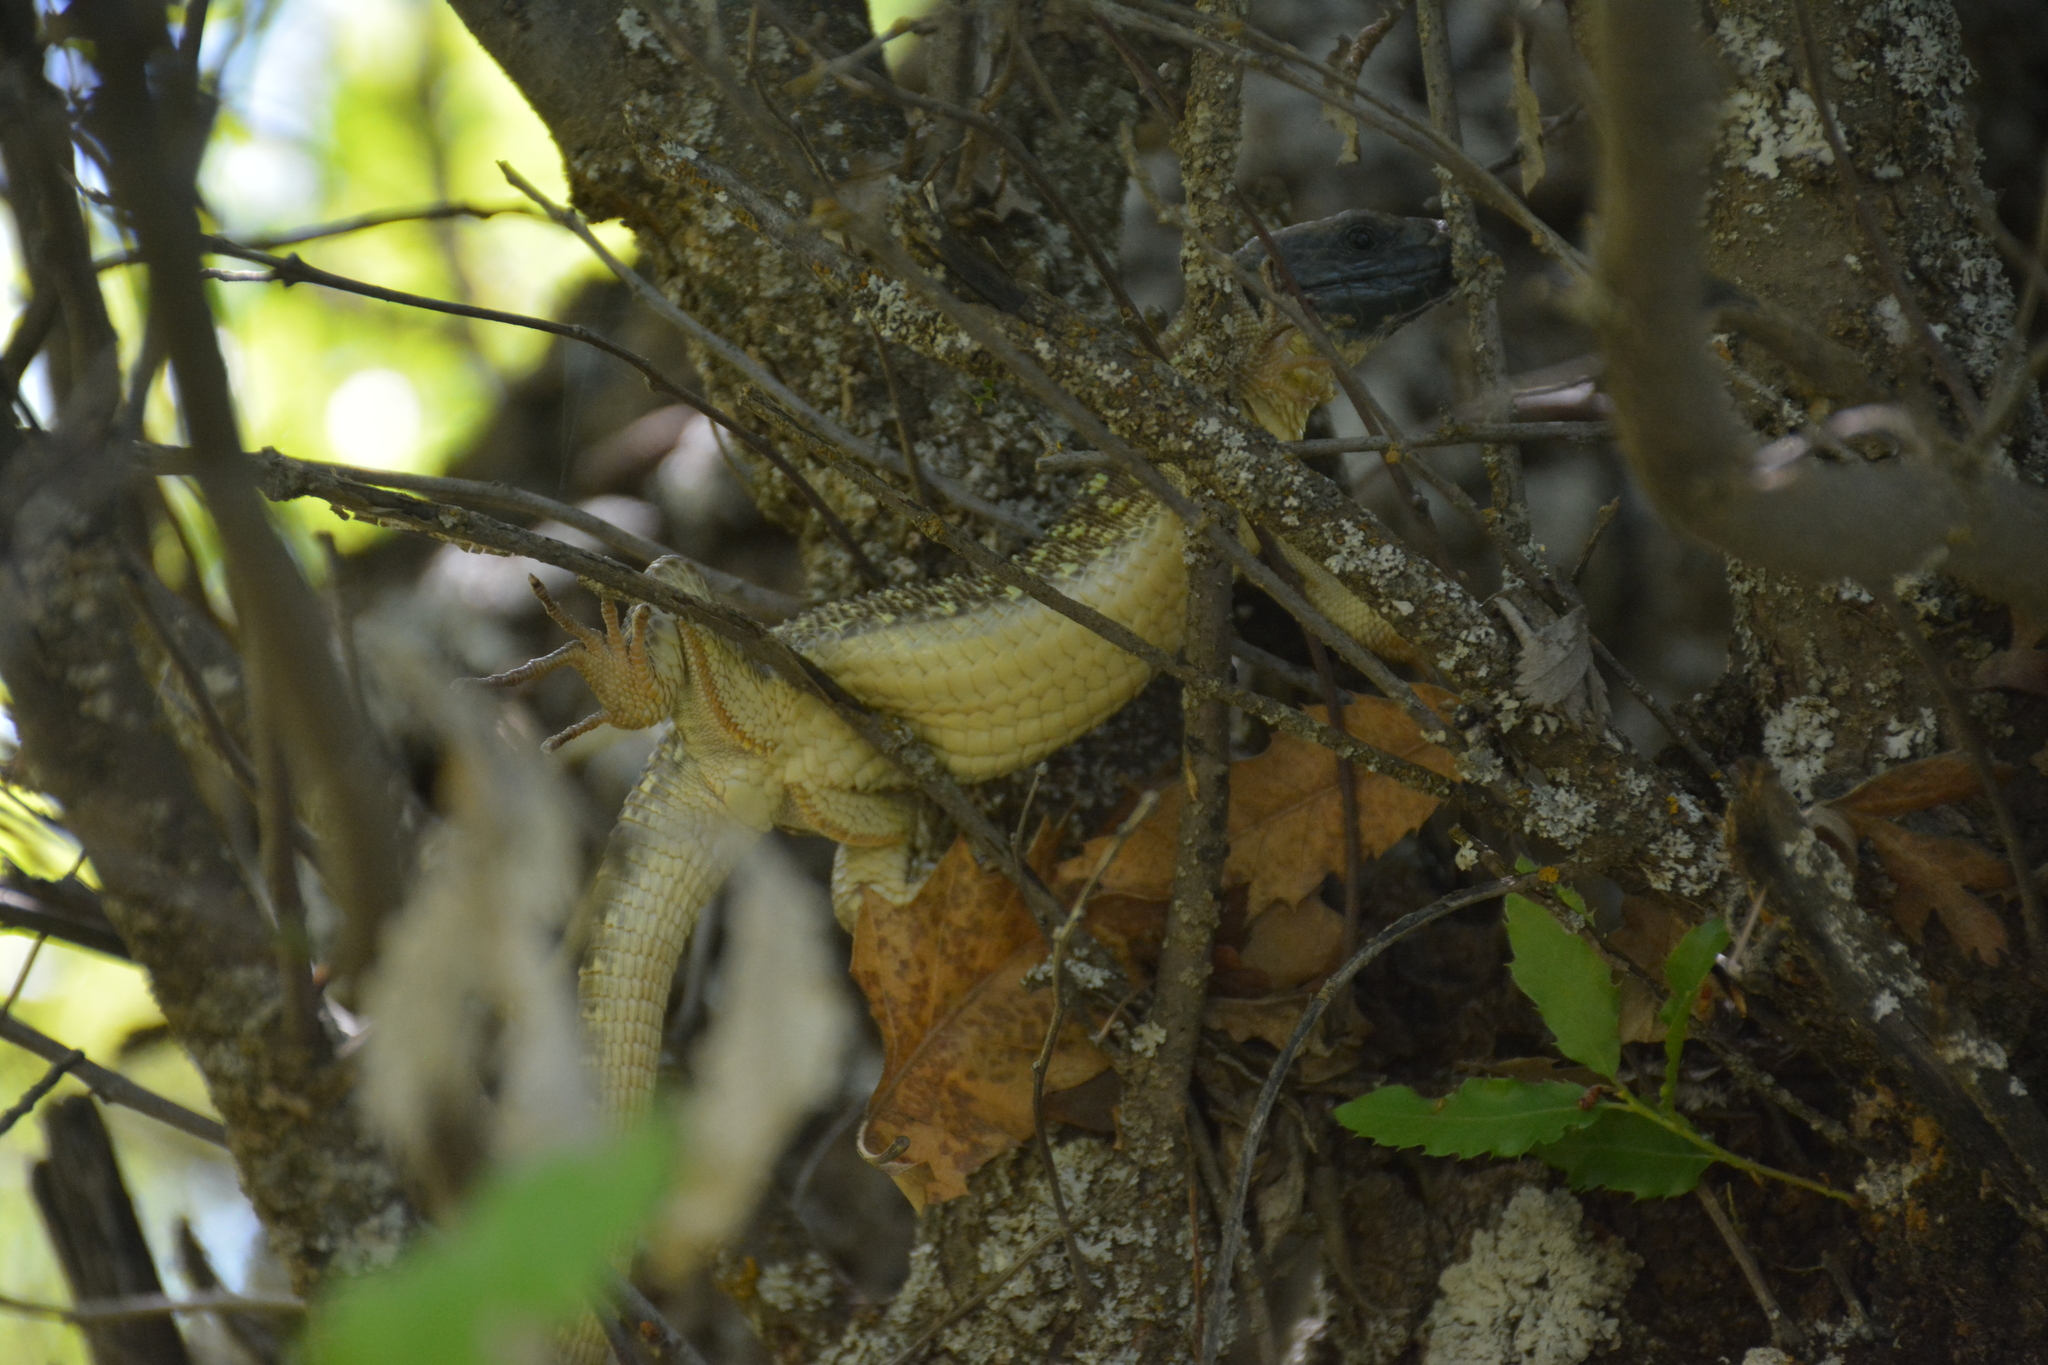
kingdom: Animalia
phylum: Chordata
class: Squamata
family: Lacertidae
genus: Timon
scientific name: Timon kurdistanicus
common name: Kurdistan lizard
